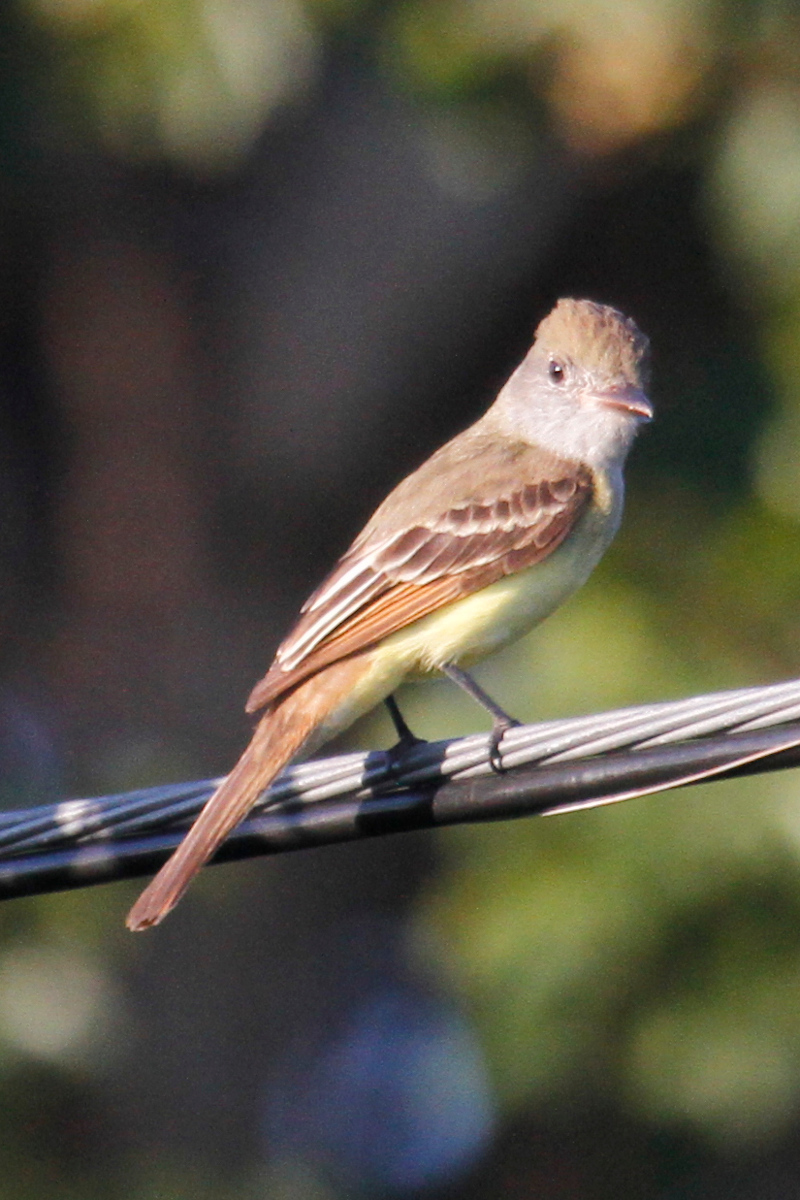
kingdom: Animalia
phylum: Chordata
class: Aves
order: Passeriformes
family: Tyrannidae
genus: Myiarchus
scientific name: Myiarchus tyrannulus
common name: Brown-crested flycatcher
